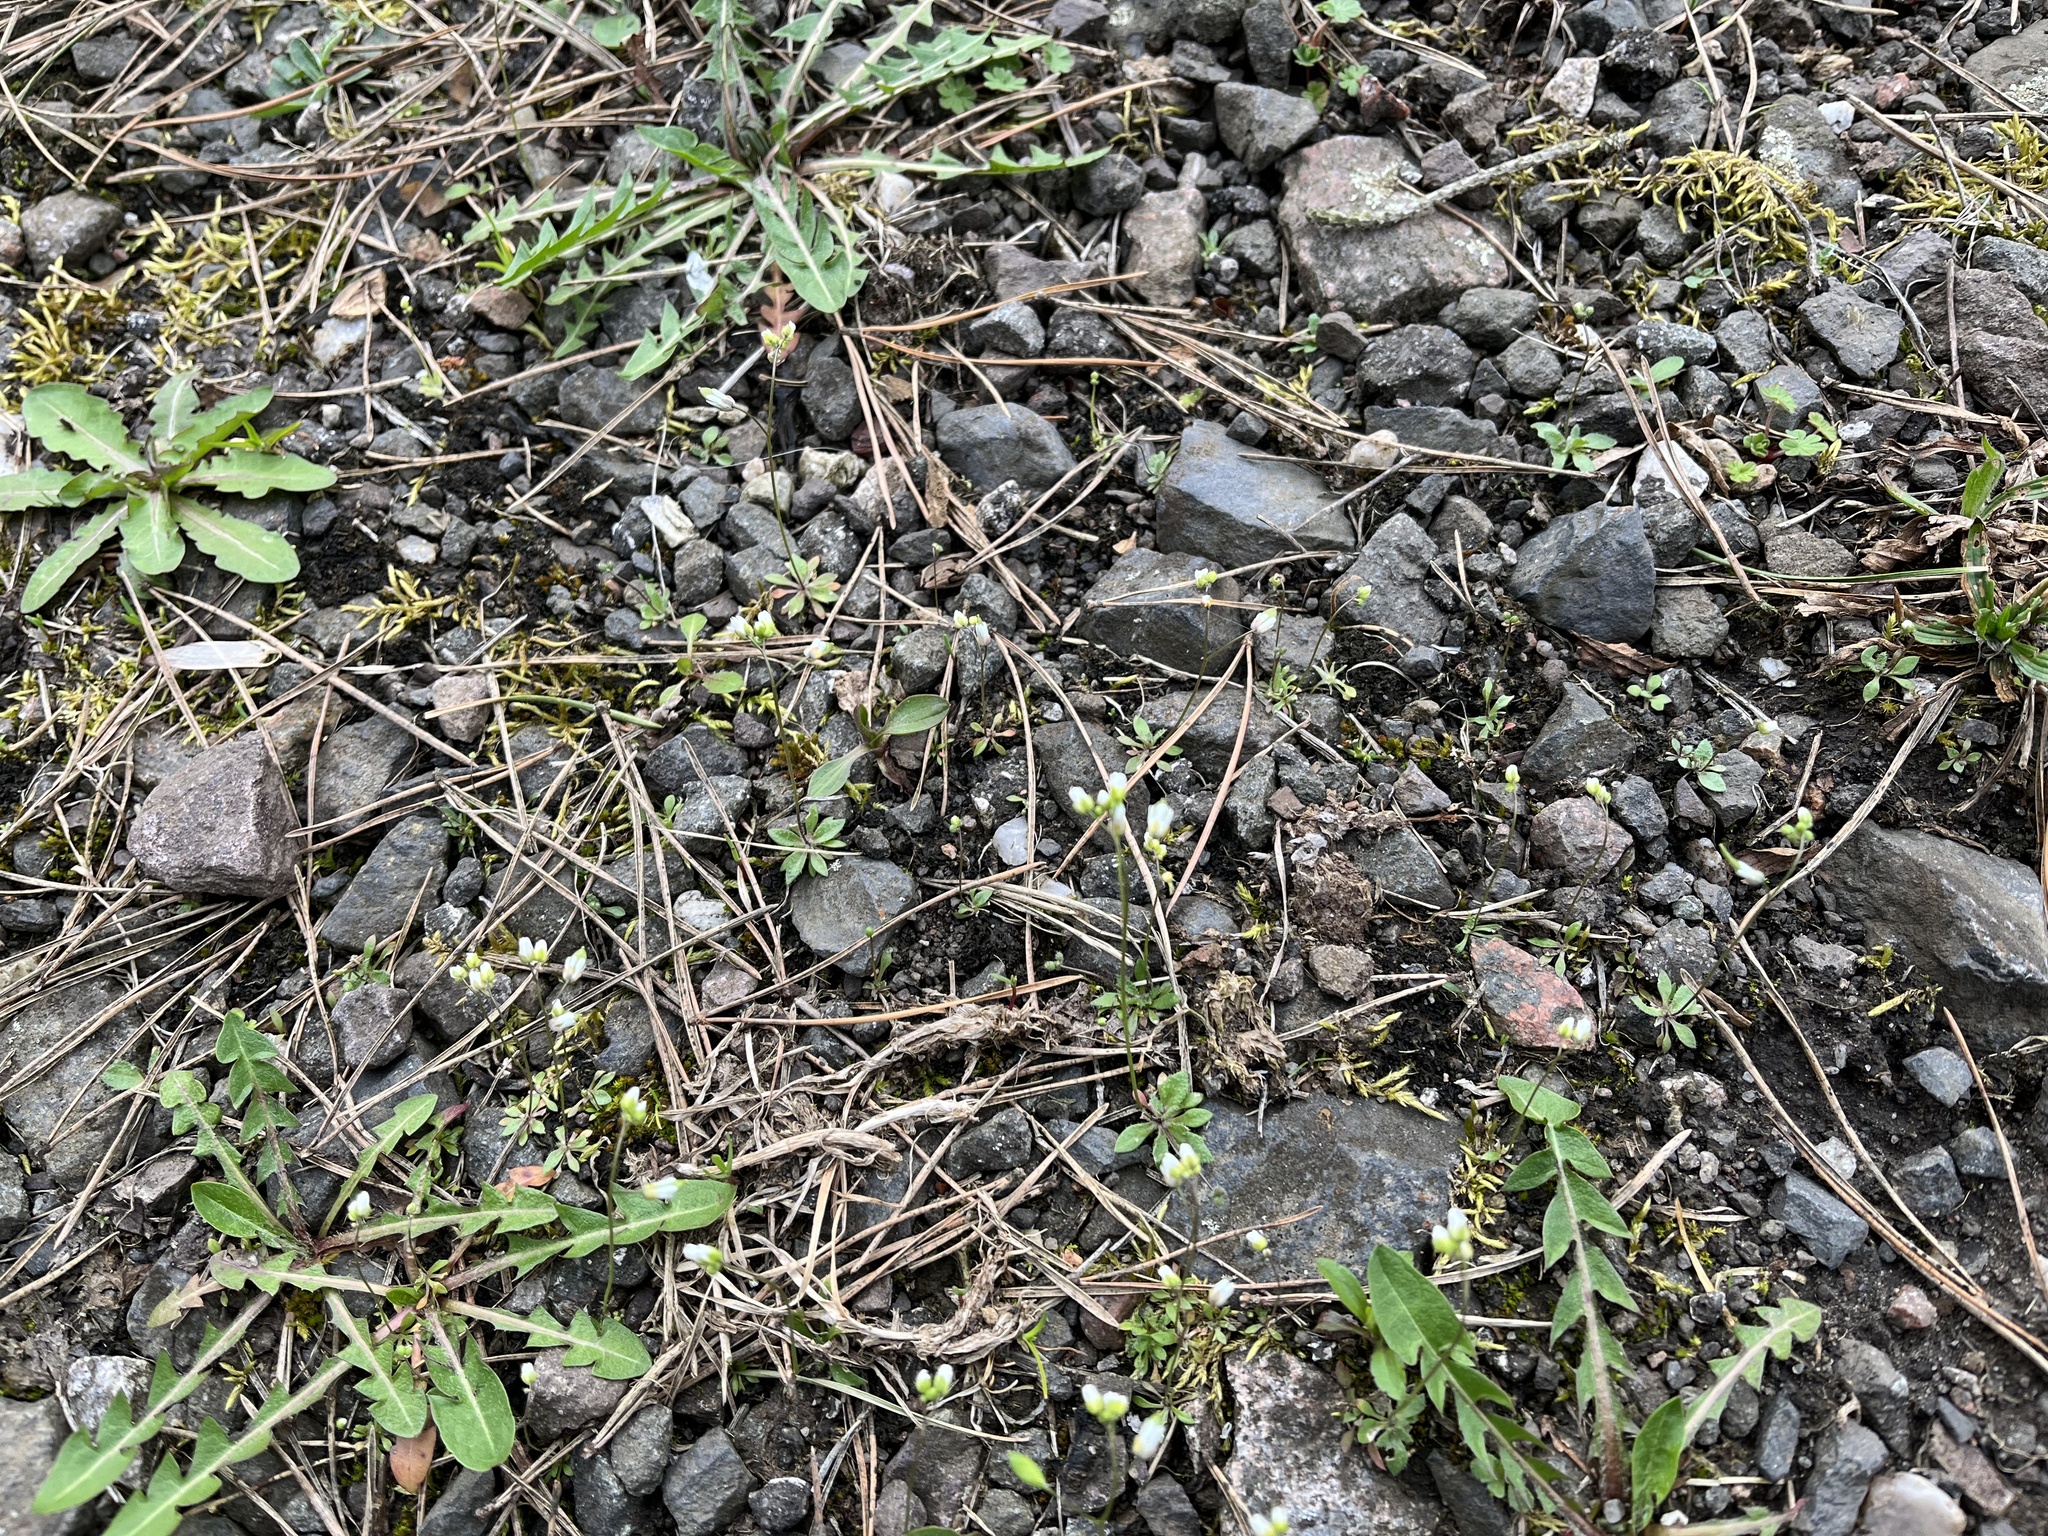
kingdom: Plantae
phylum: Tracheophyta
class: Magnoliopsida
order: Brassicales
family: Brassicaceae
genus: Draba
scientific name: Draba verna
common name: Spring draba
